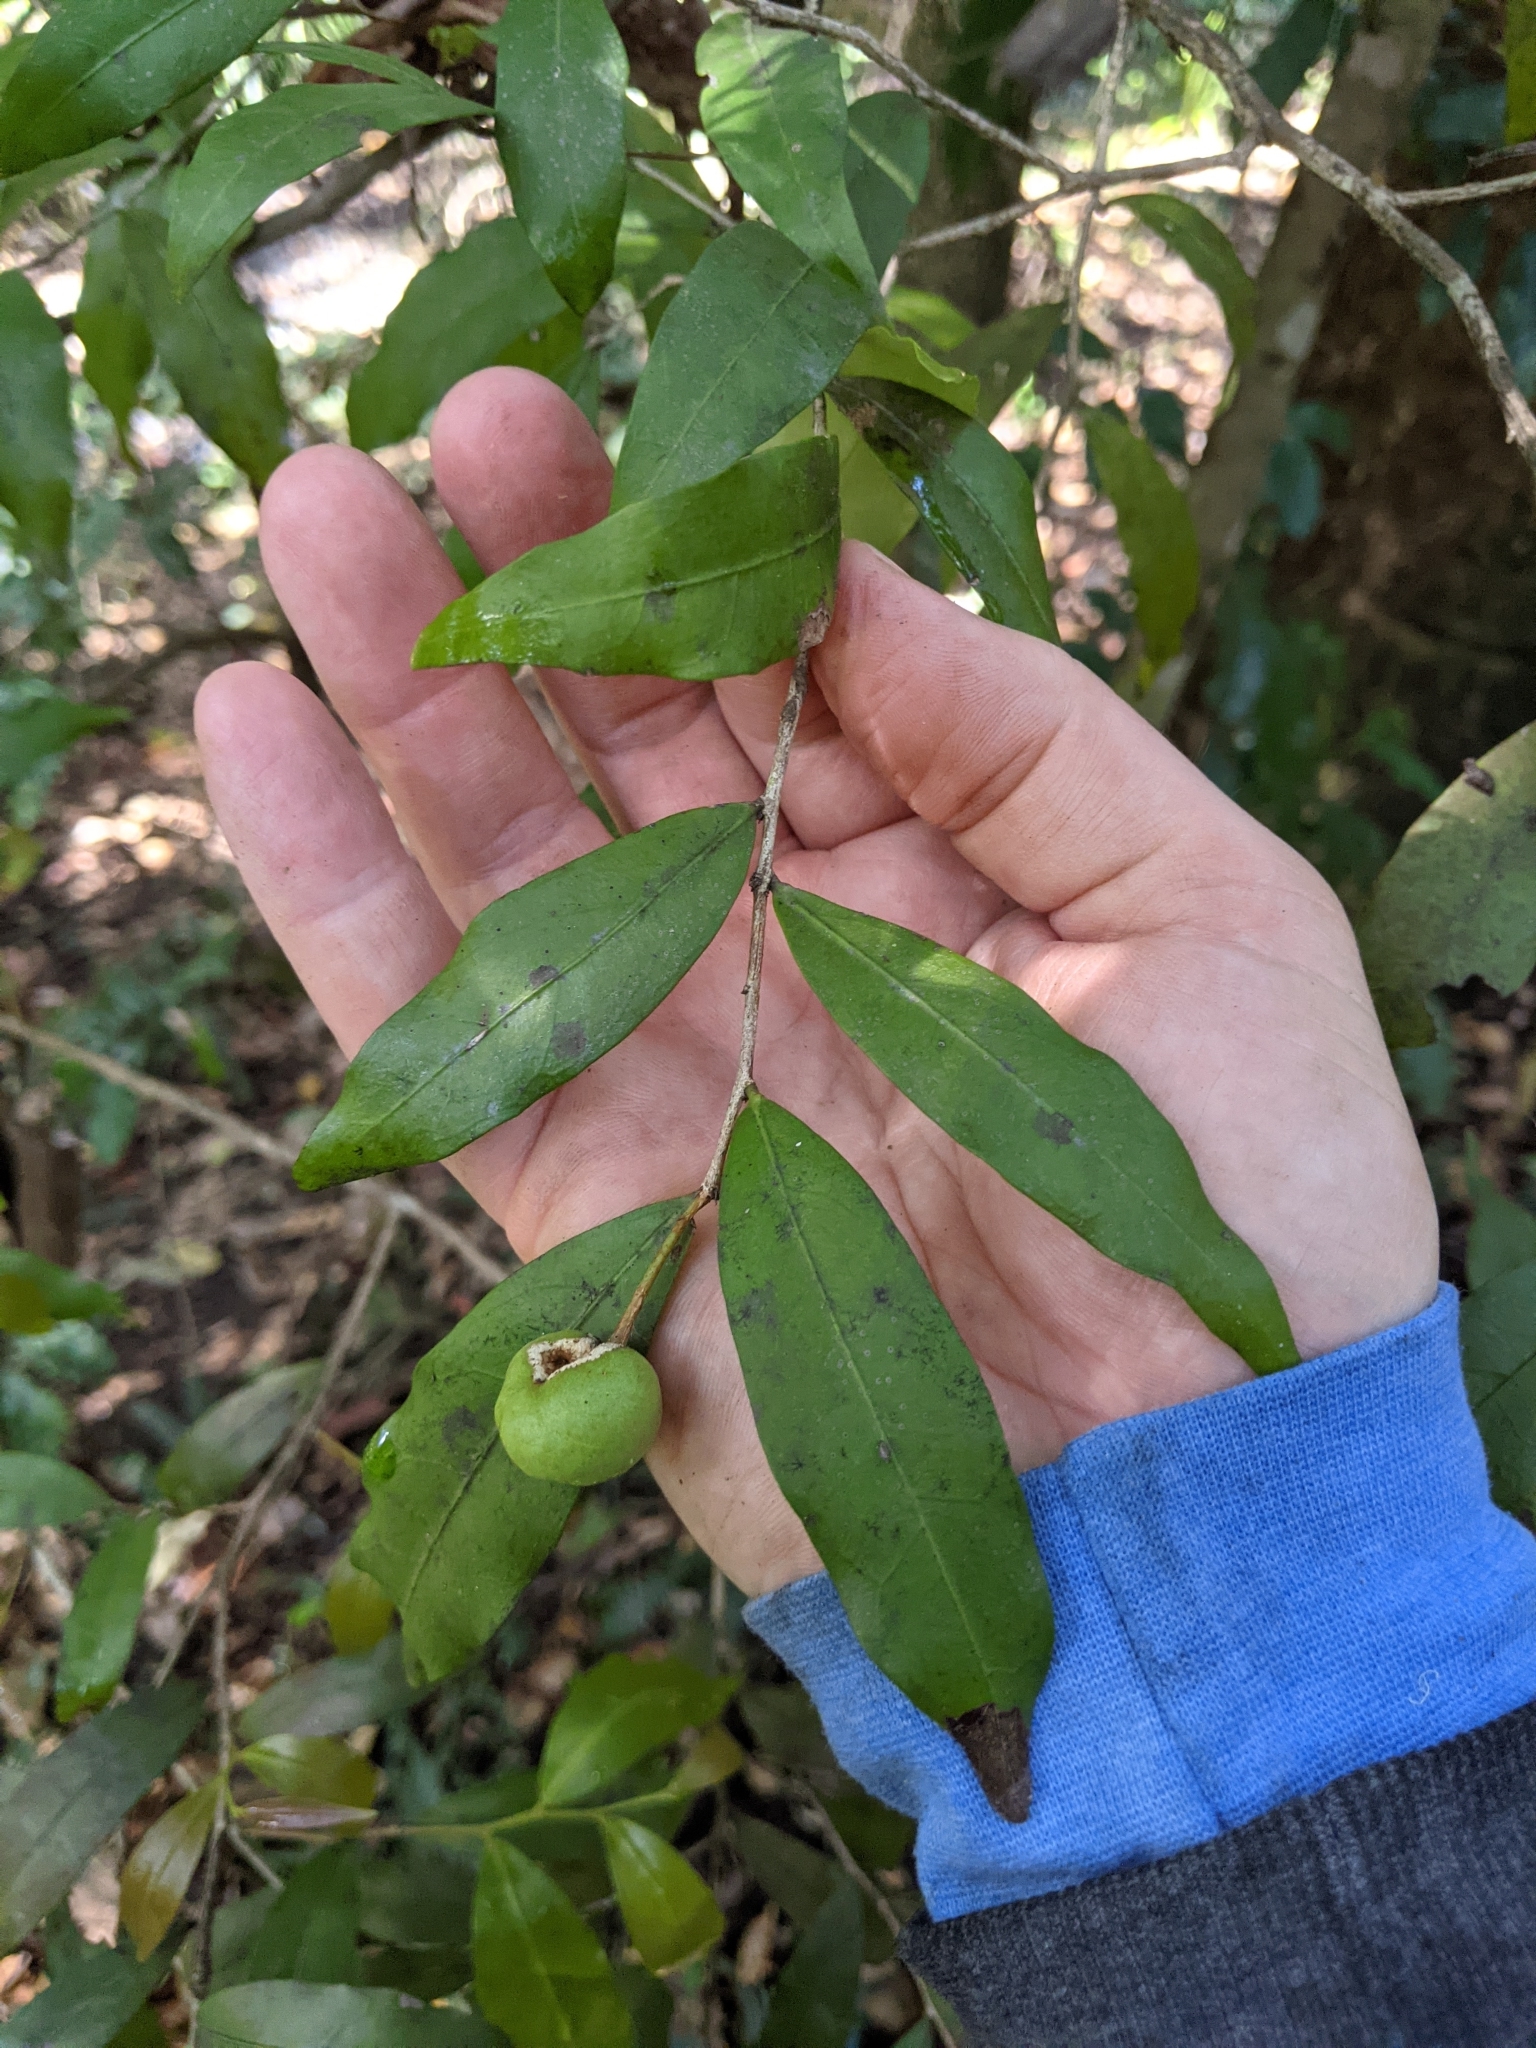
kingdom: Plantae
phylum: Tracheophyta
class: Magnoliopsida
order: Celastrales
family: Celastraceae
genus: Hedraianthera
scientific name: Hedraianthera porphyropetala
